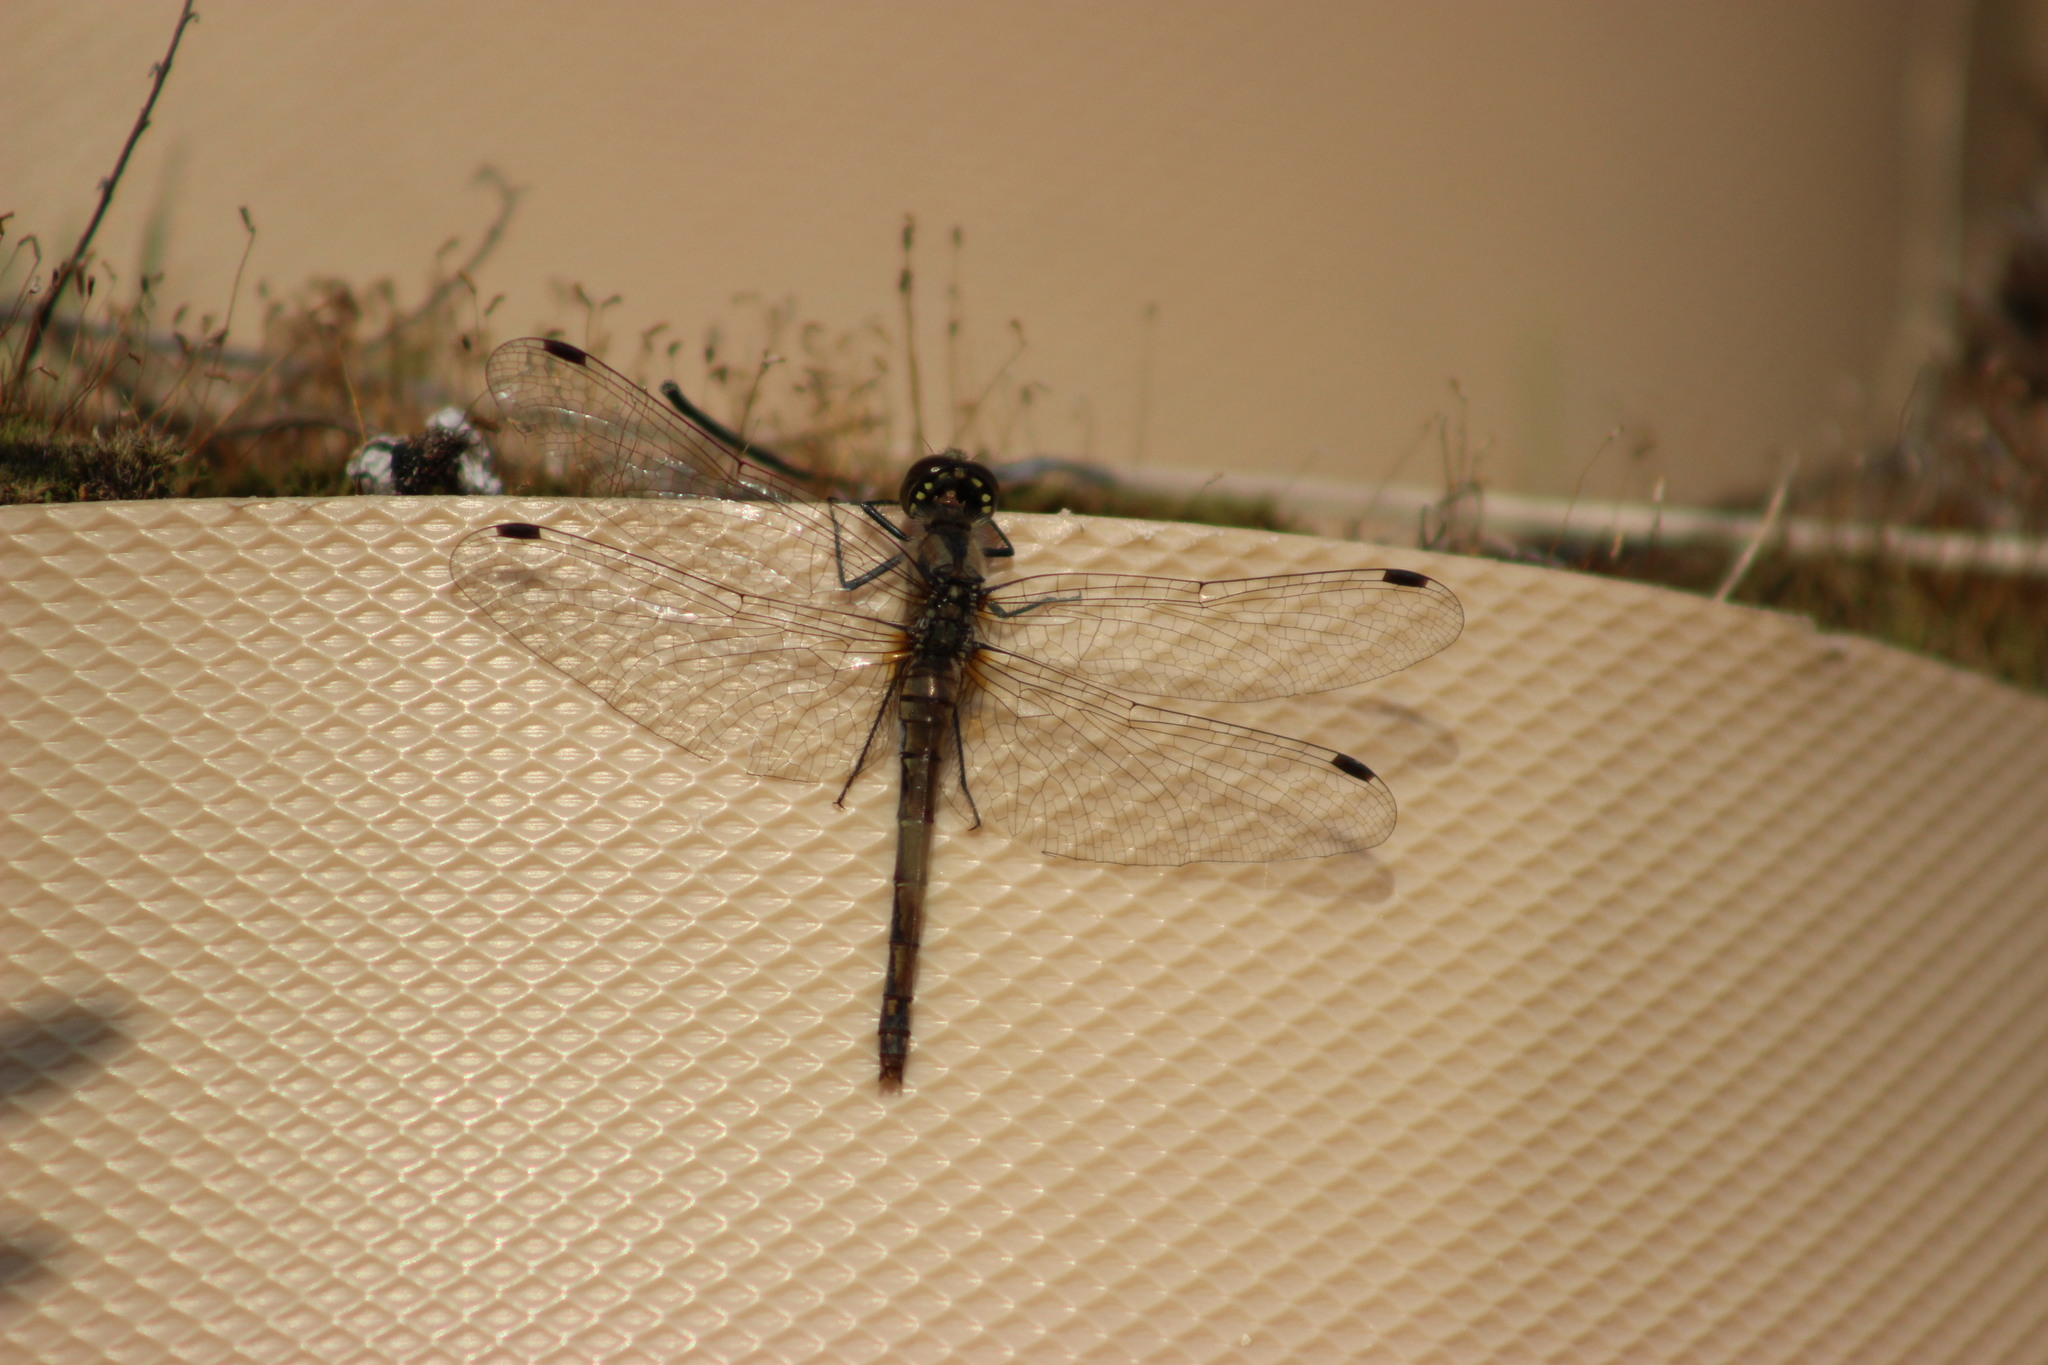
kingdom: Animalia
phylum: Arthropoda
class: Insecta
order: Odonata
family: Libellulidae
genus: Sympetrum
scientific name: Sympetrum danae
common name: Black darter
